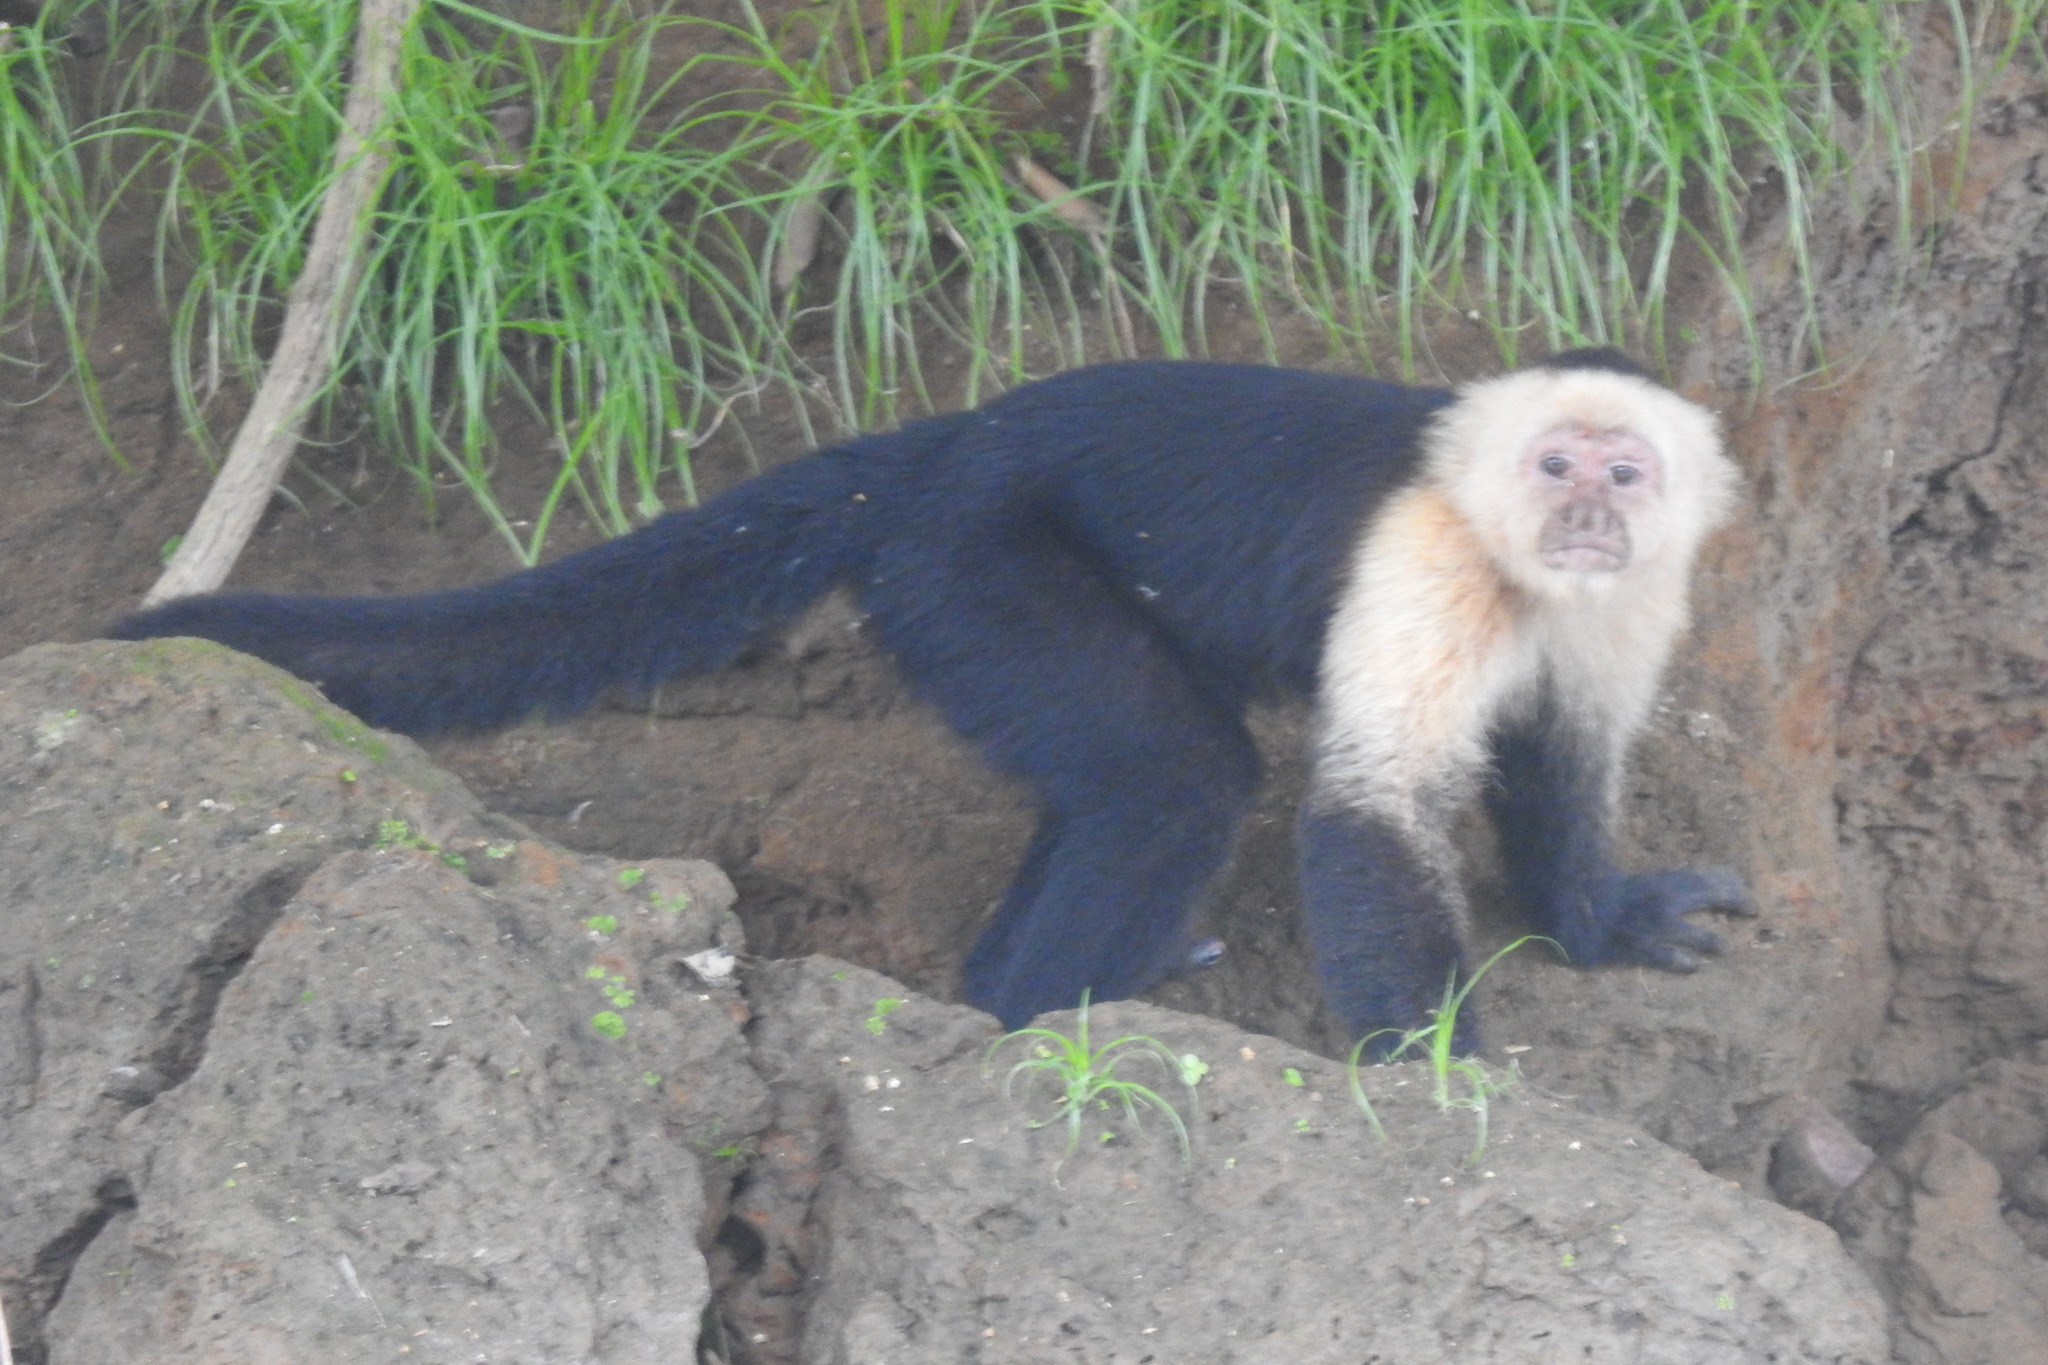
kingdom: Animalia
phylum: Chordata
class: Mammalia
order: Primates
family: Cebidae
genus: Cebus
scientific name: Cebus imitator
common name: Panamanian white-faced capuchin
